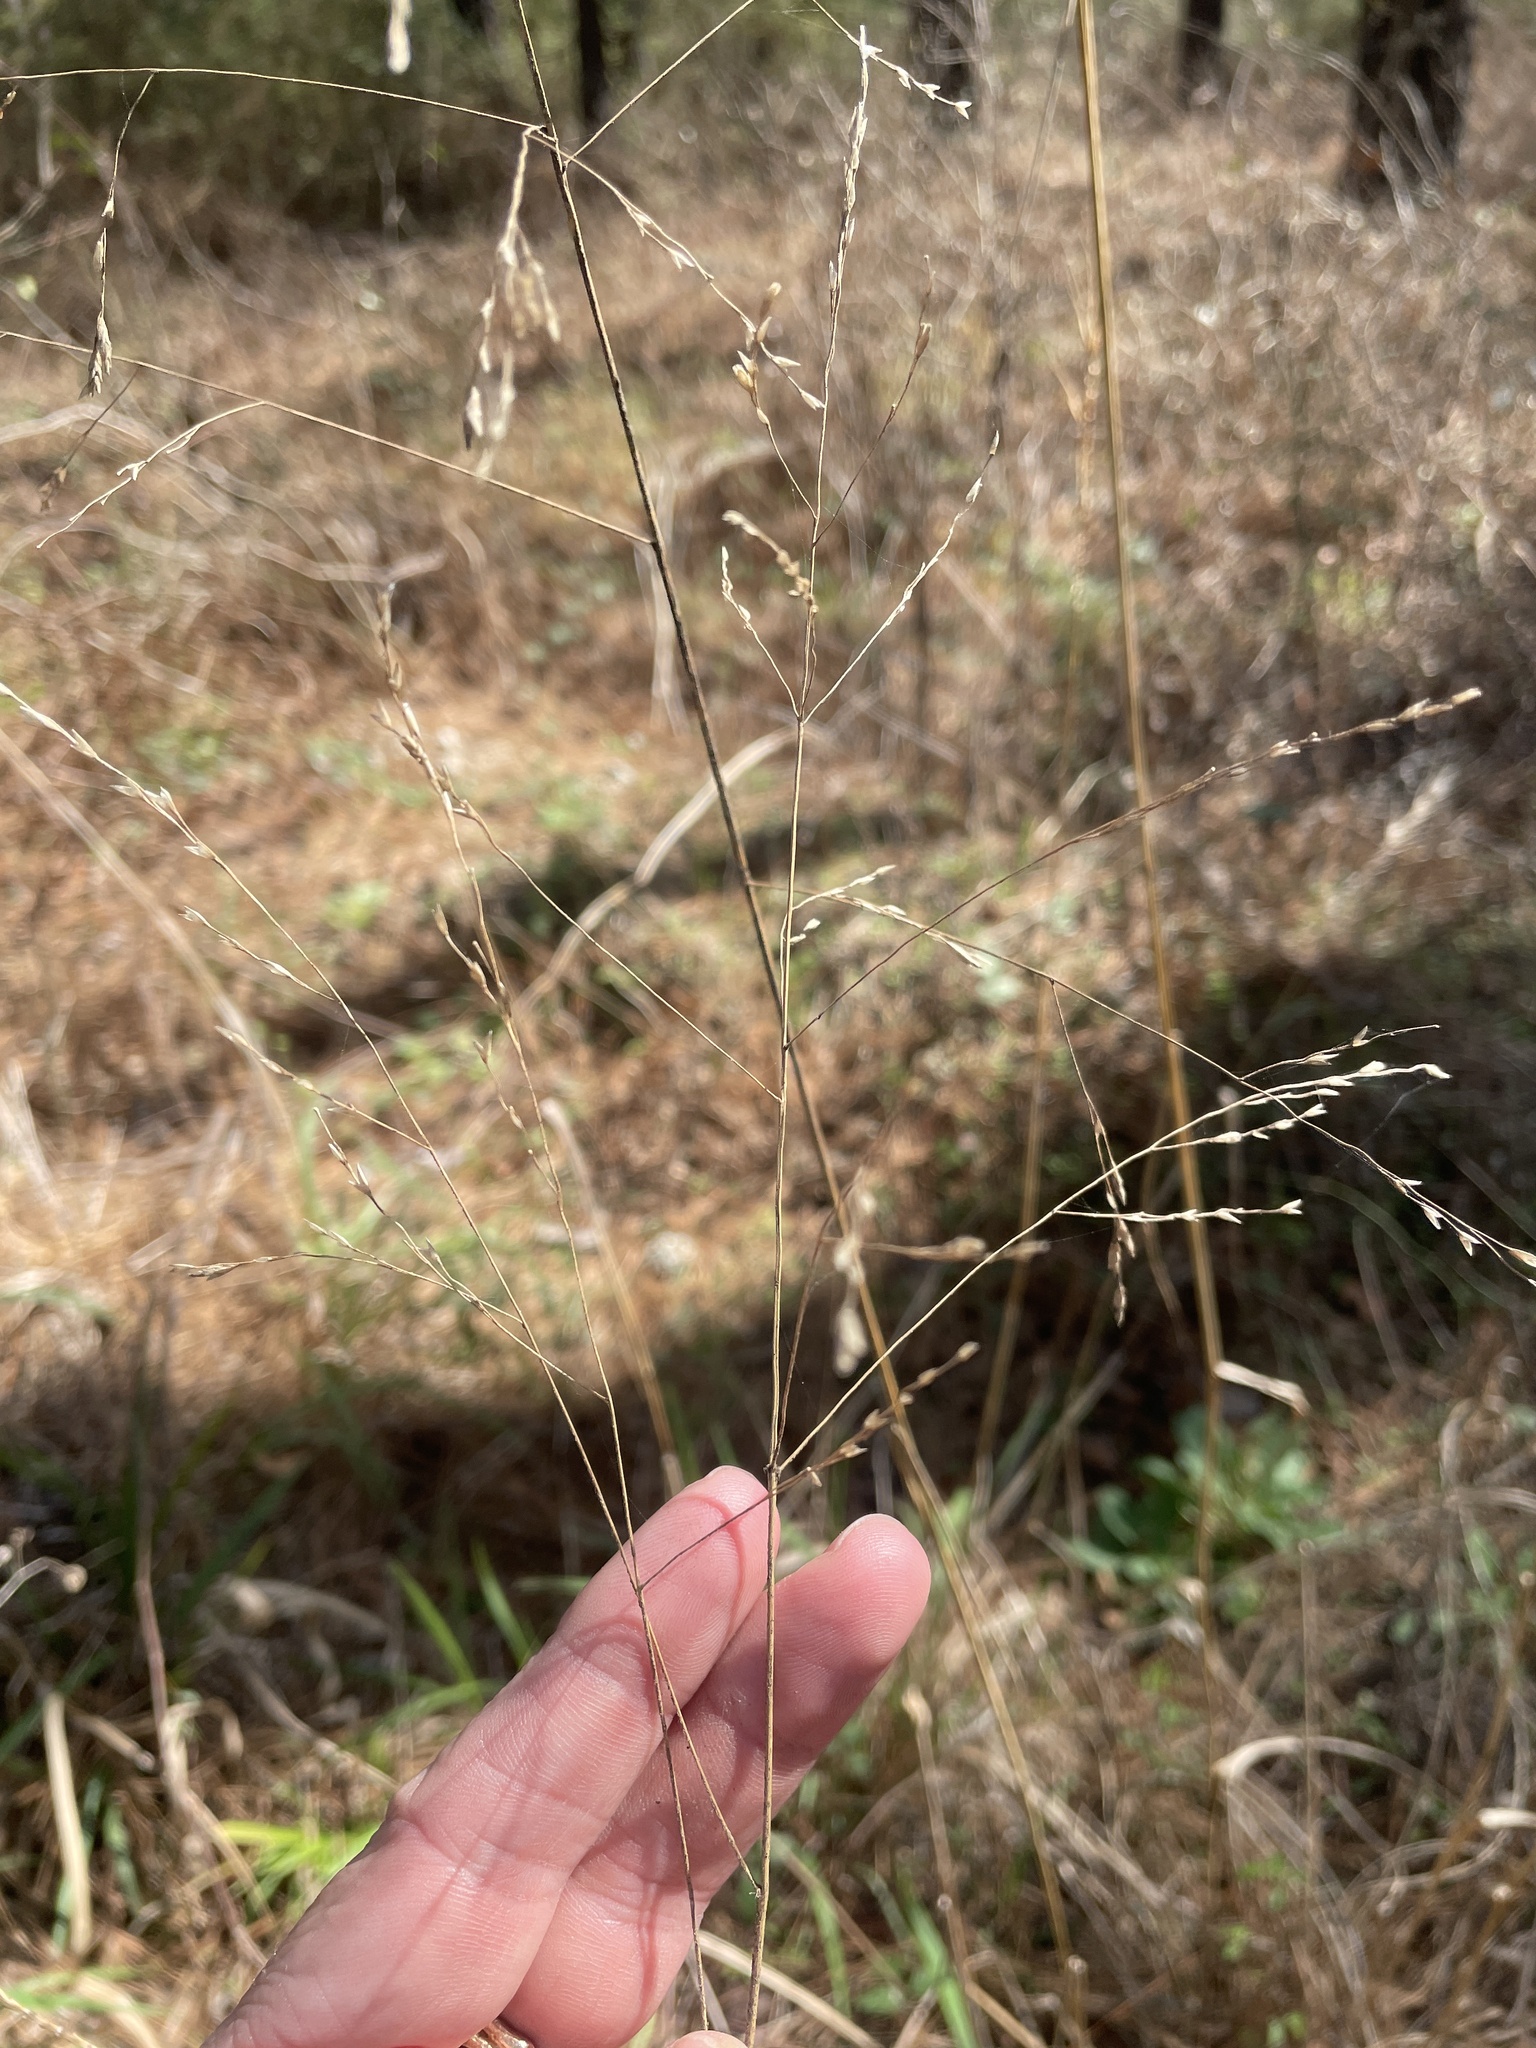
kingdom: Plantae
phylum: Tracheophyta
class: Liliopsida
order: Poales
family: Poaceae
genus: Tridens
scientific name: Tridens flavus
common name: Purpletop
